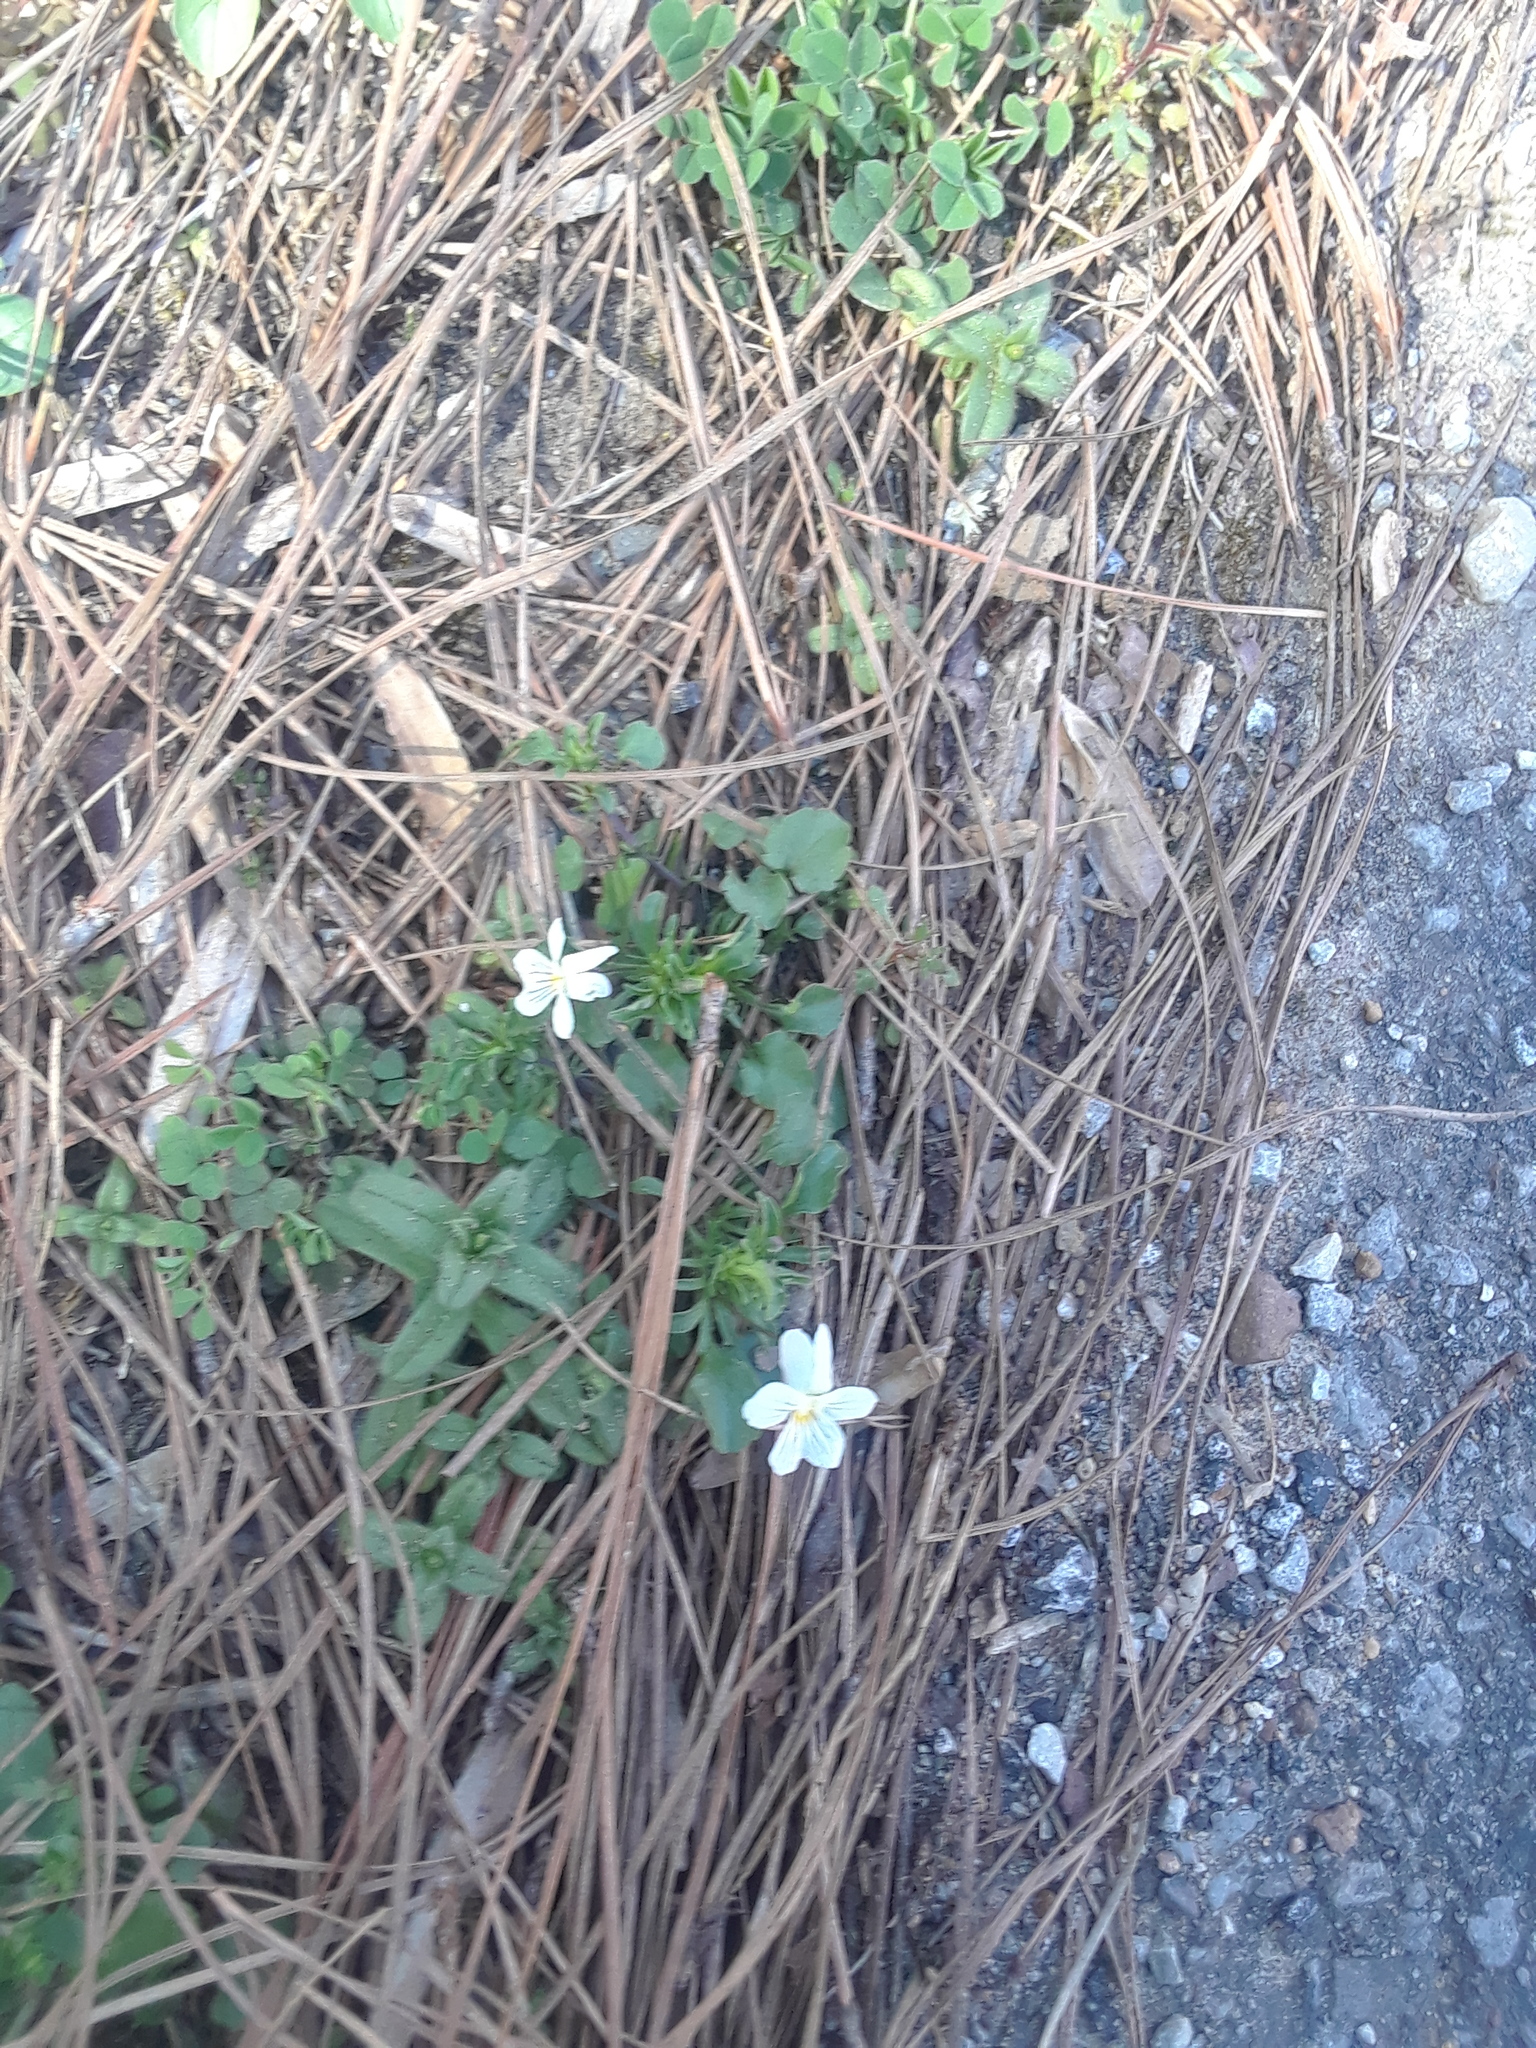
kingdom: Plantae
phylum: Tracheophyta
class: Magnoliopsida
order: Malpighiales
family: Violaceae
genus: Viola
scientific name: Viola rafinesquei
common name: American field pansy
